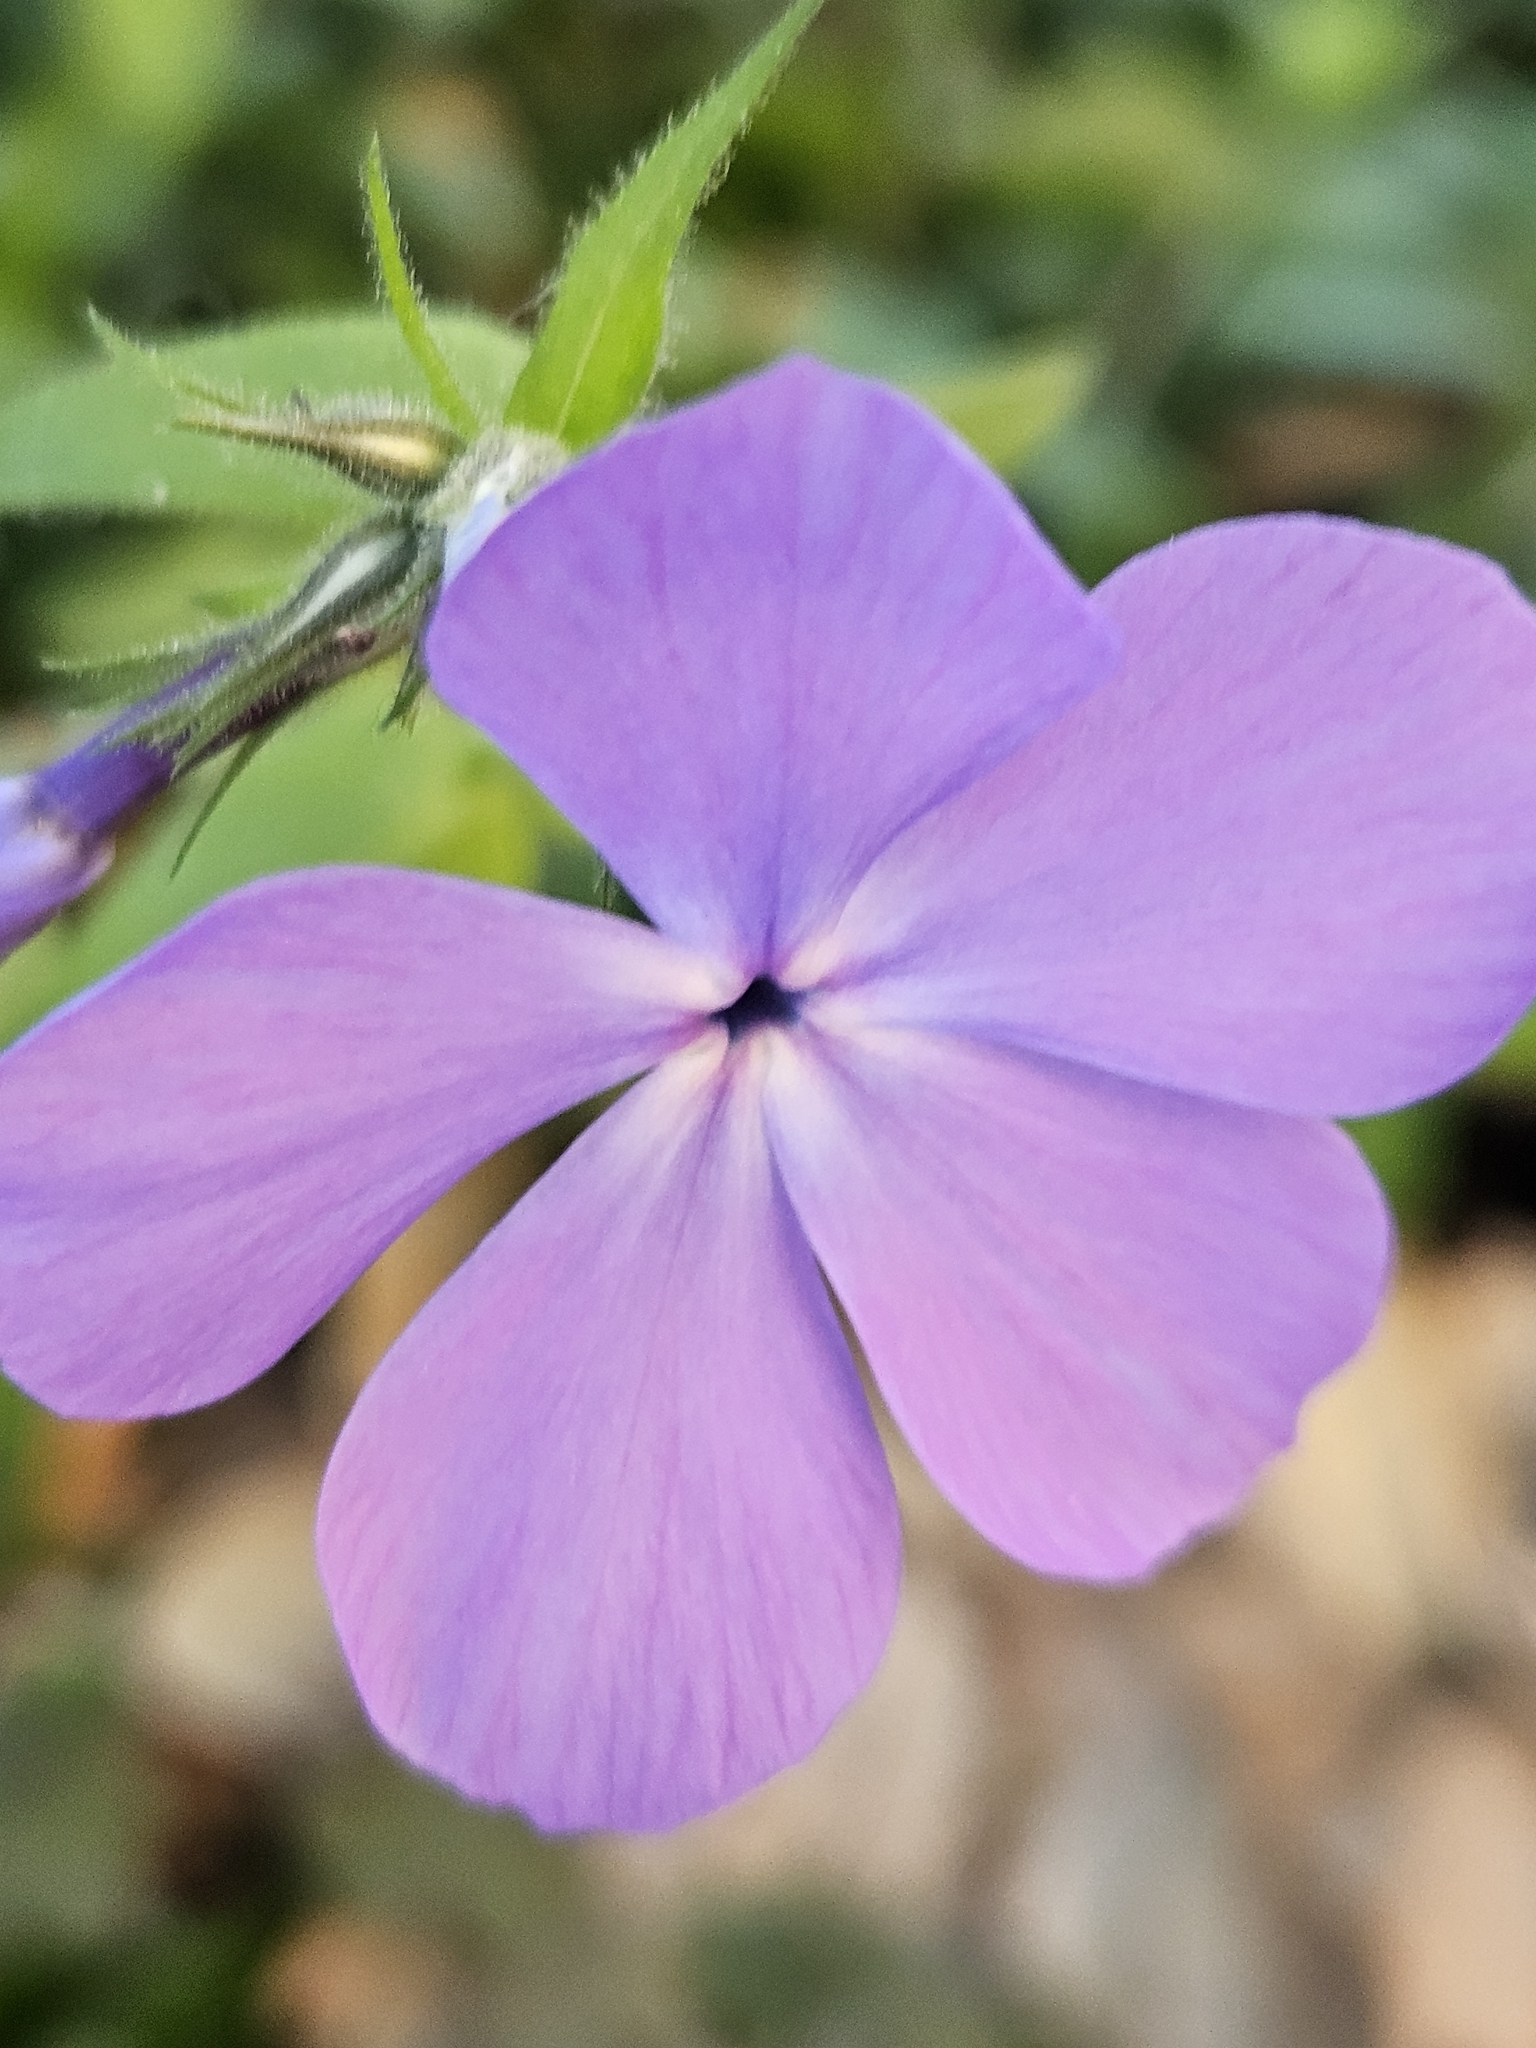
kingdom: Plantae
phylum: Tracheophyta
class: Magnoliopsida
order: Ericales
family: Polemoniaceae
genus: Phlox
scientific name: Phlox divaricata
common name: Blue phlox
